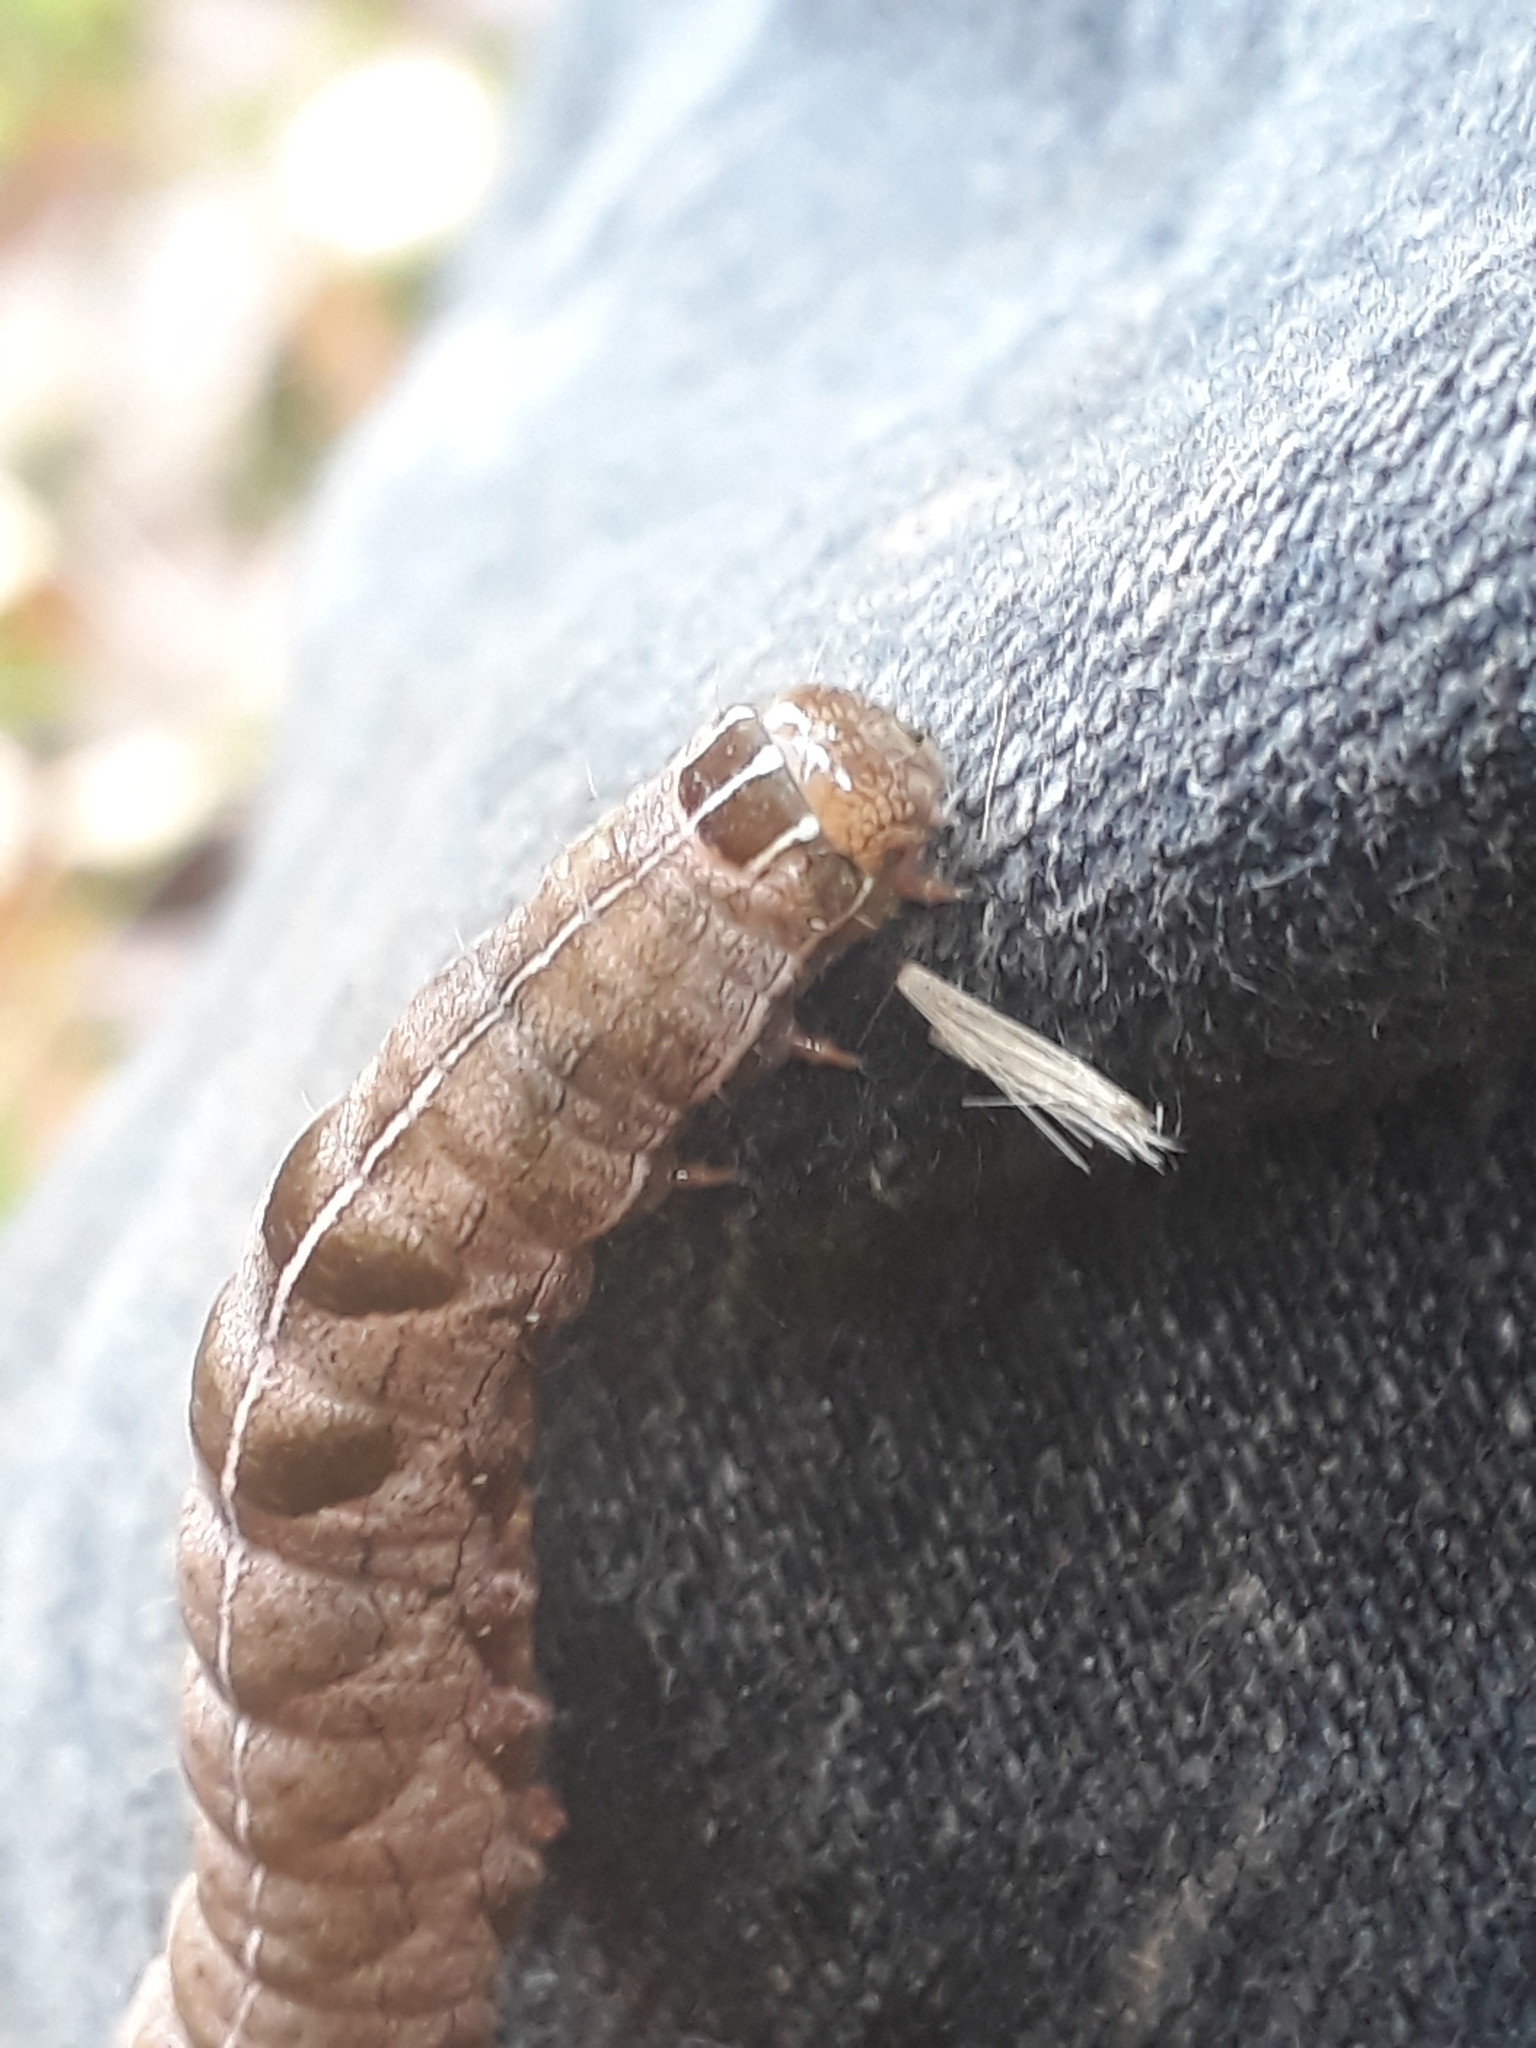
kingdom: Animalia
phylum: Arthropoda
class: Insecta
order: Lepidoptera
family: Noctuidae
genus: Melanchra
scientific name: Melanchra persicariae
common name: Dot moth
